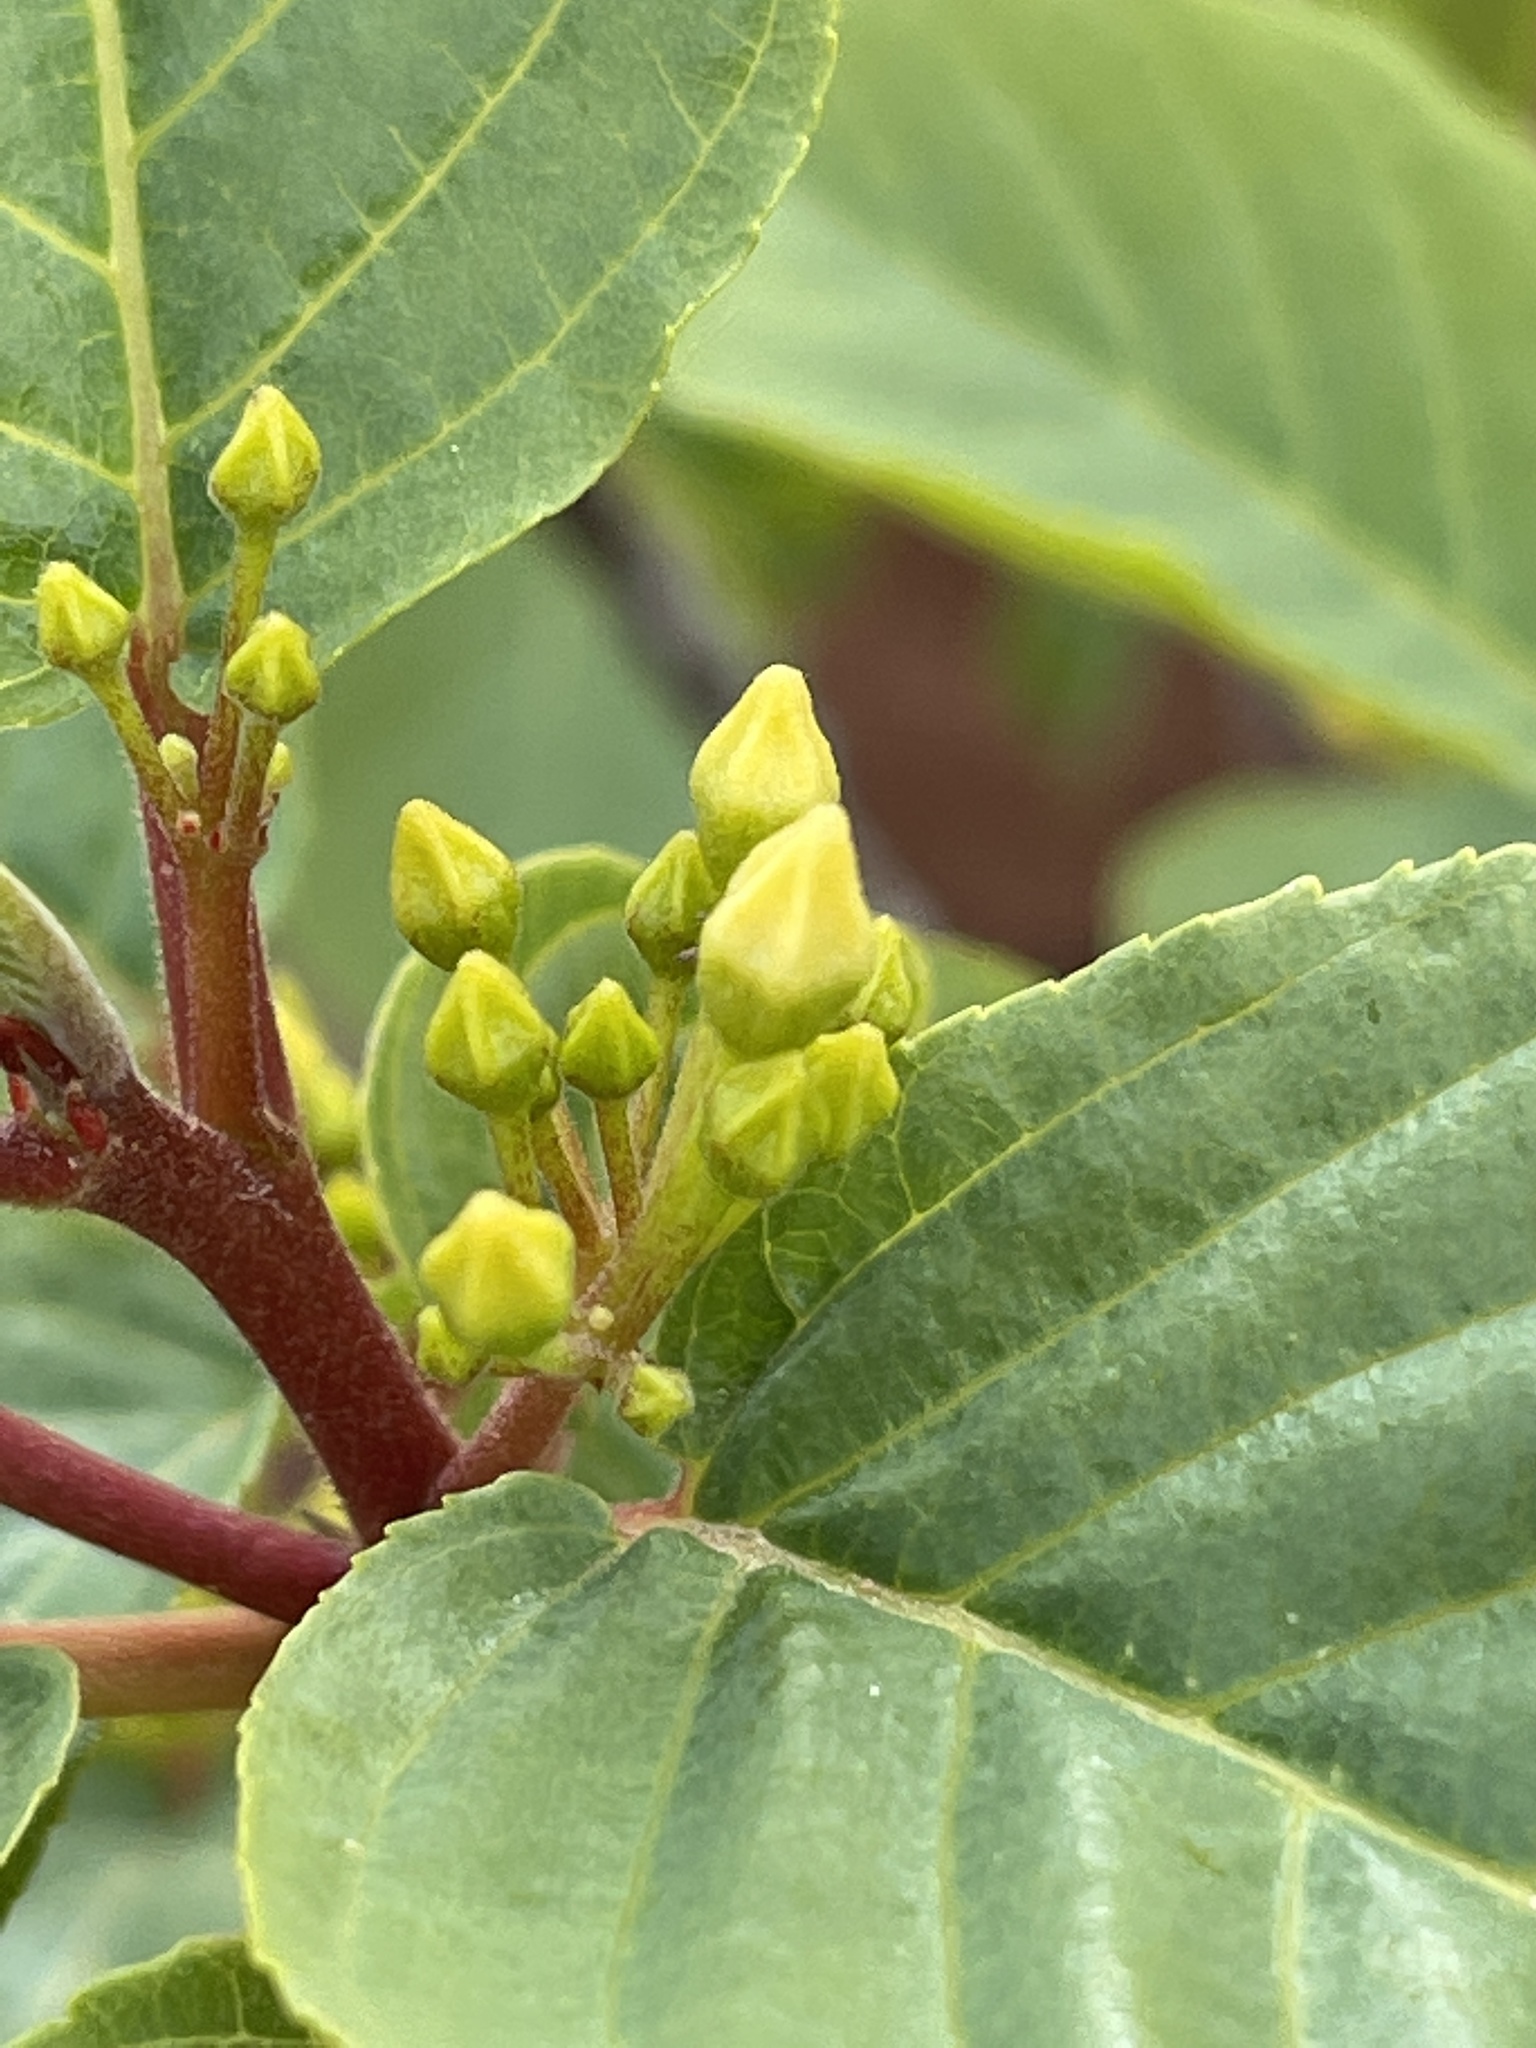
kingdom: Plantae
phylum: Tracheophyta
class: Magnoliopsida
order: Rosales
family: Rhamnaceae
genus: Frangula
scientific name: Frangula betulifolia
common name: Birch-leaf buckthorn
